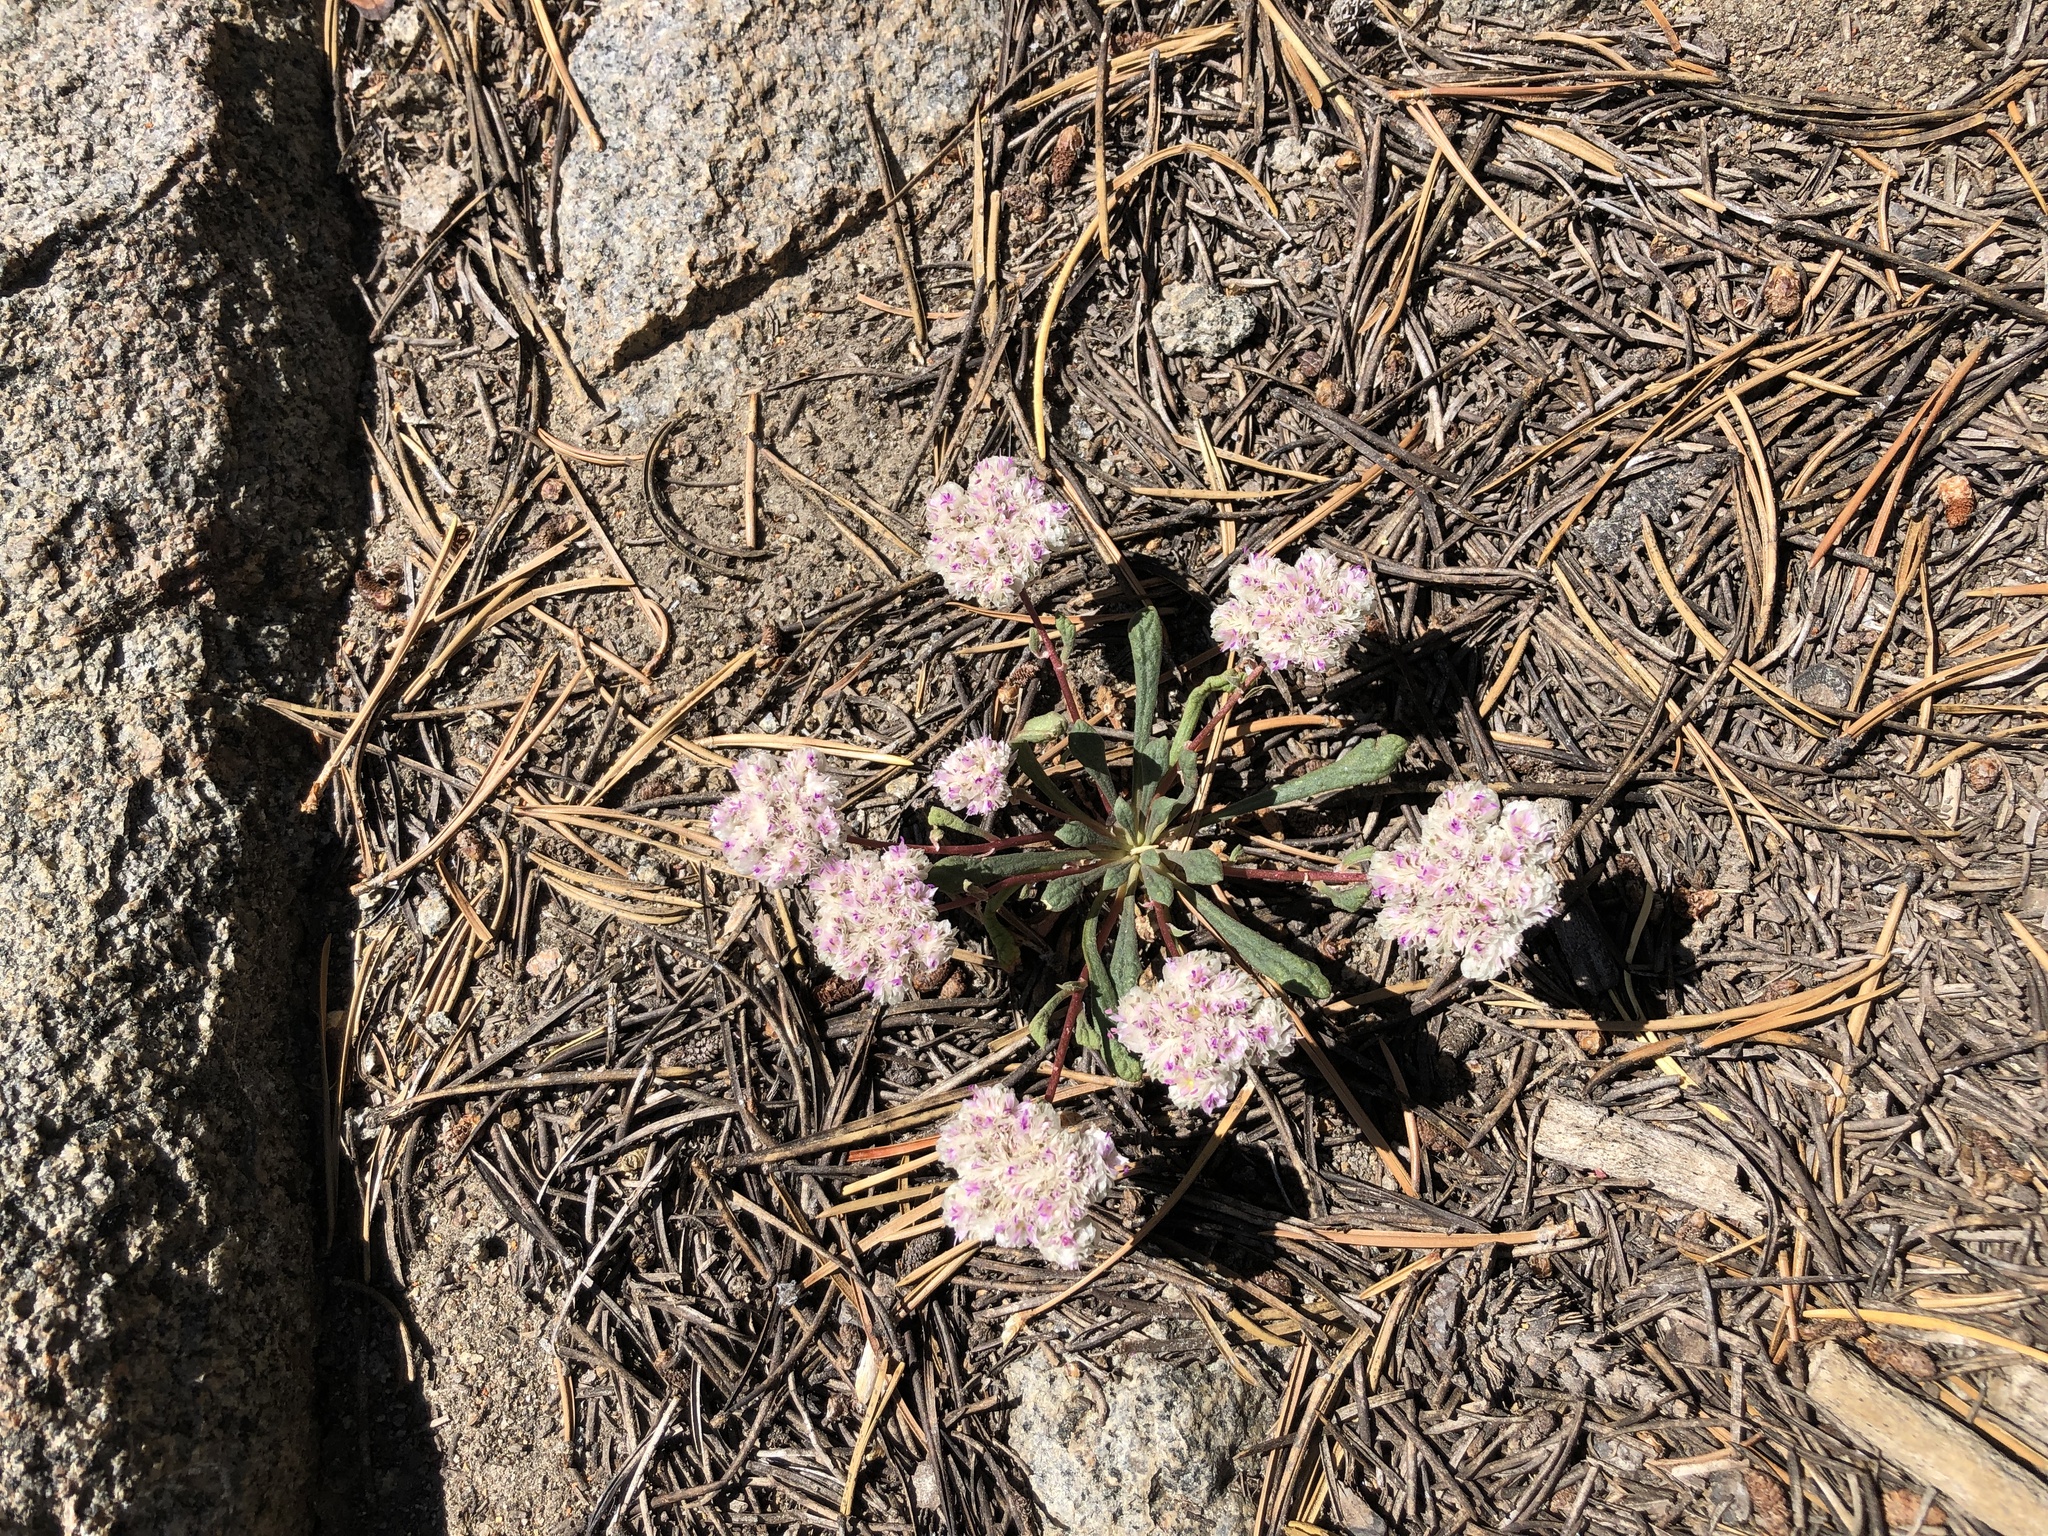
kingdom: Plantae
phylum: Tracheophyta
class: Magnoliopsida
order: Caryophyllales
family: Montiaceae
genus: Calyptridium
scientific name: Calyptridium monospermum
